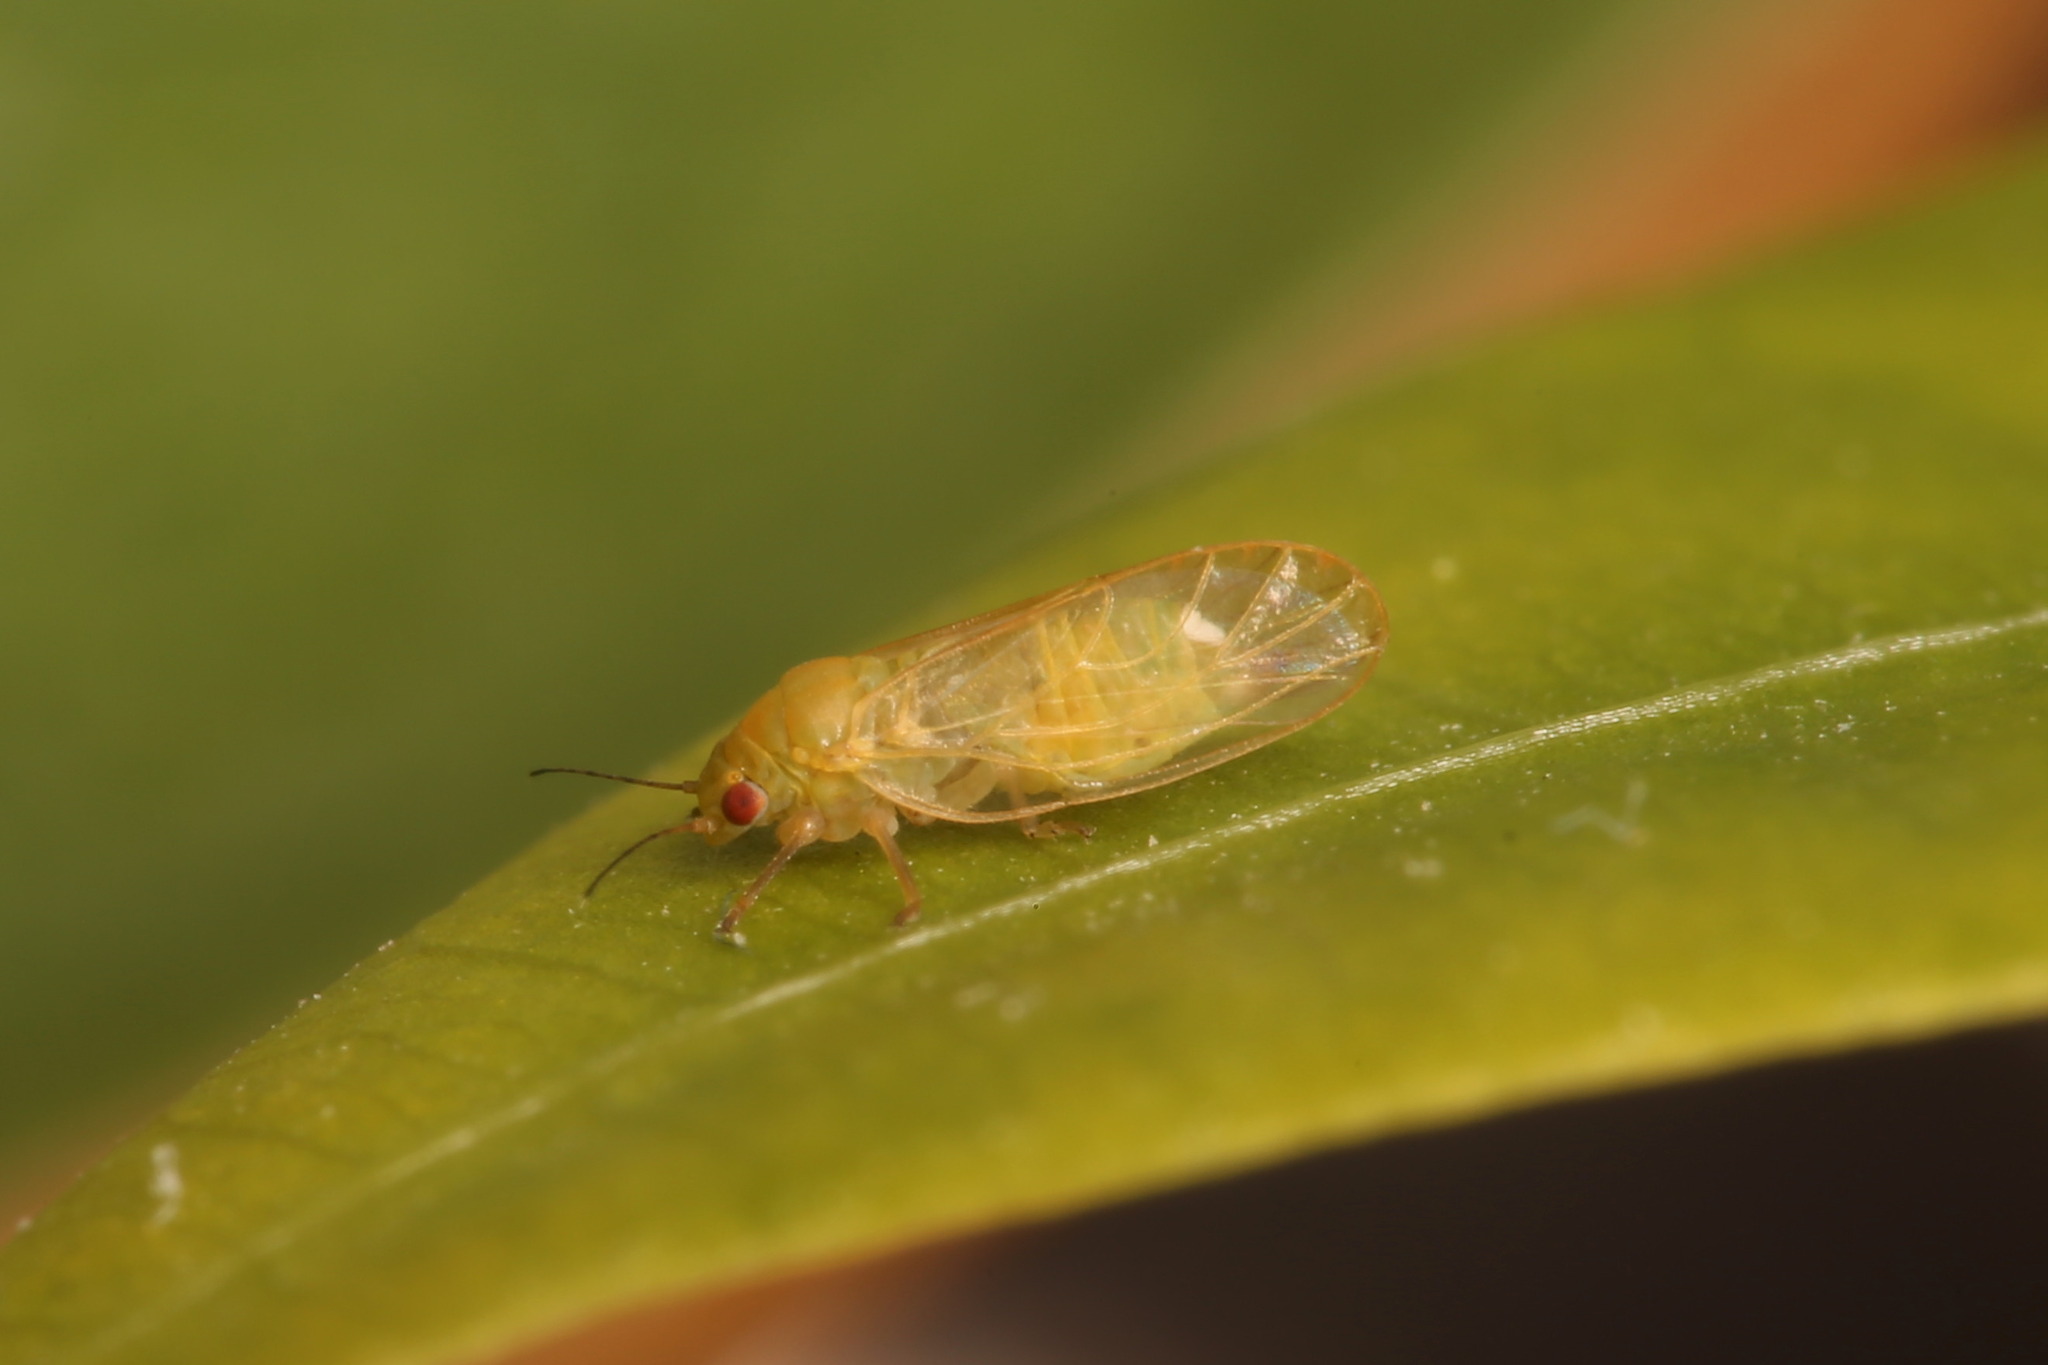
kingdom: Animalia
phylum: Arthropoda
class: Insecta
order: Hemiptera
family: Psyllidae
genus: Acizzia
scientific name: Acizzia jamatonica
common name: Mimosa psyllid
